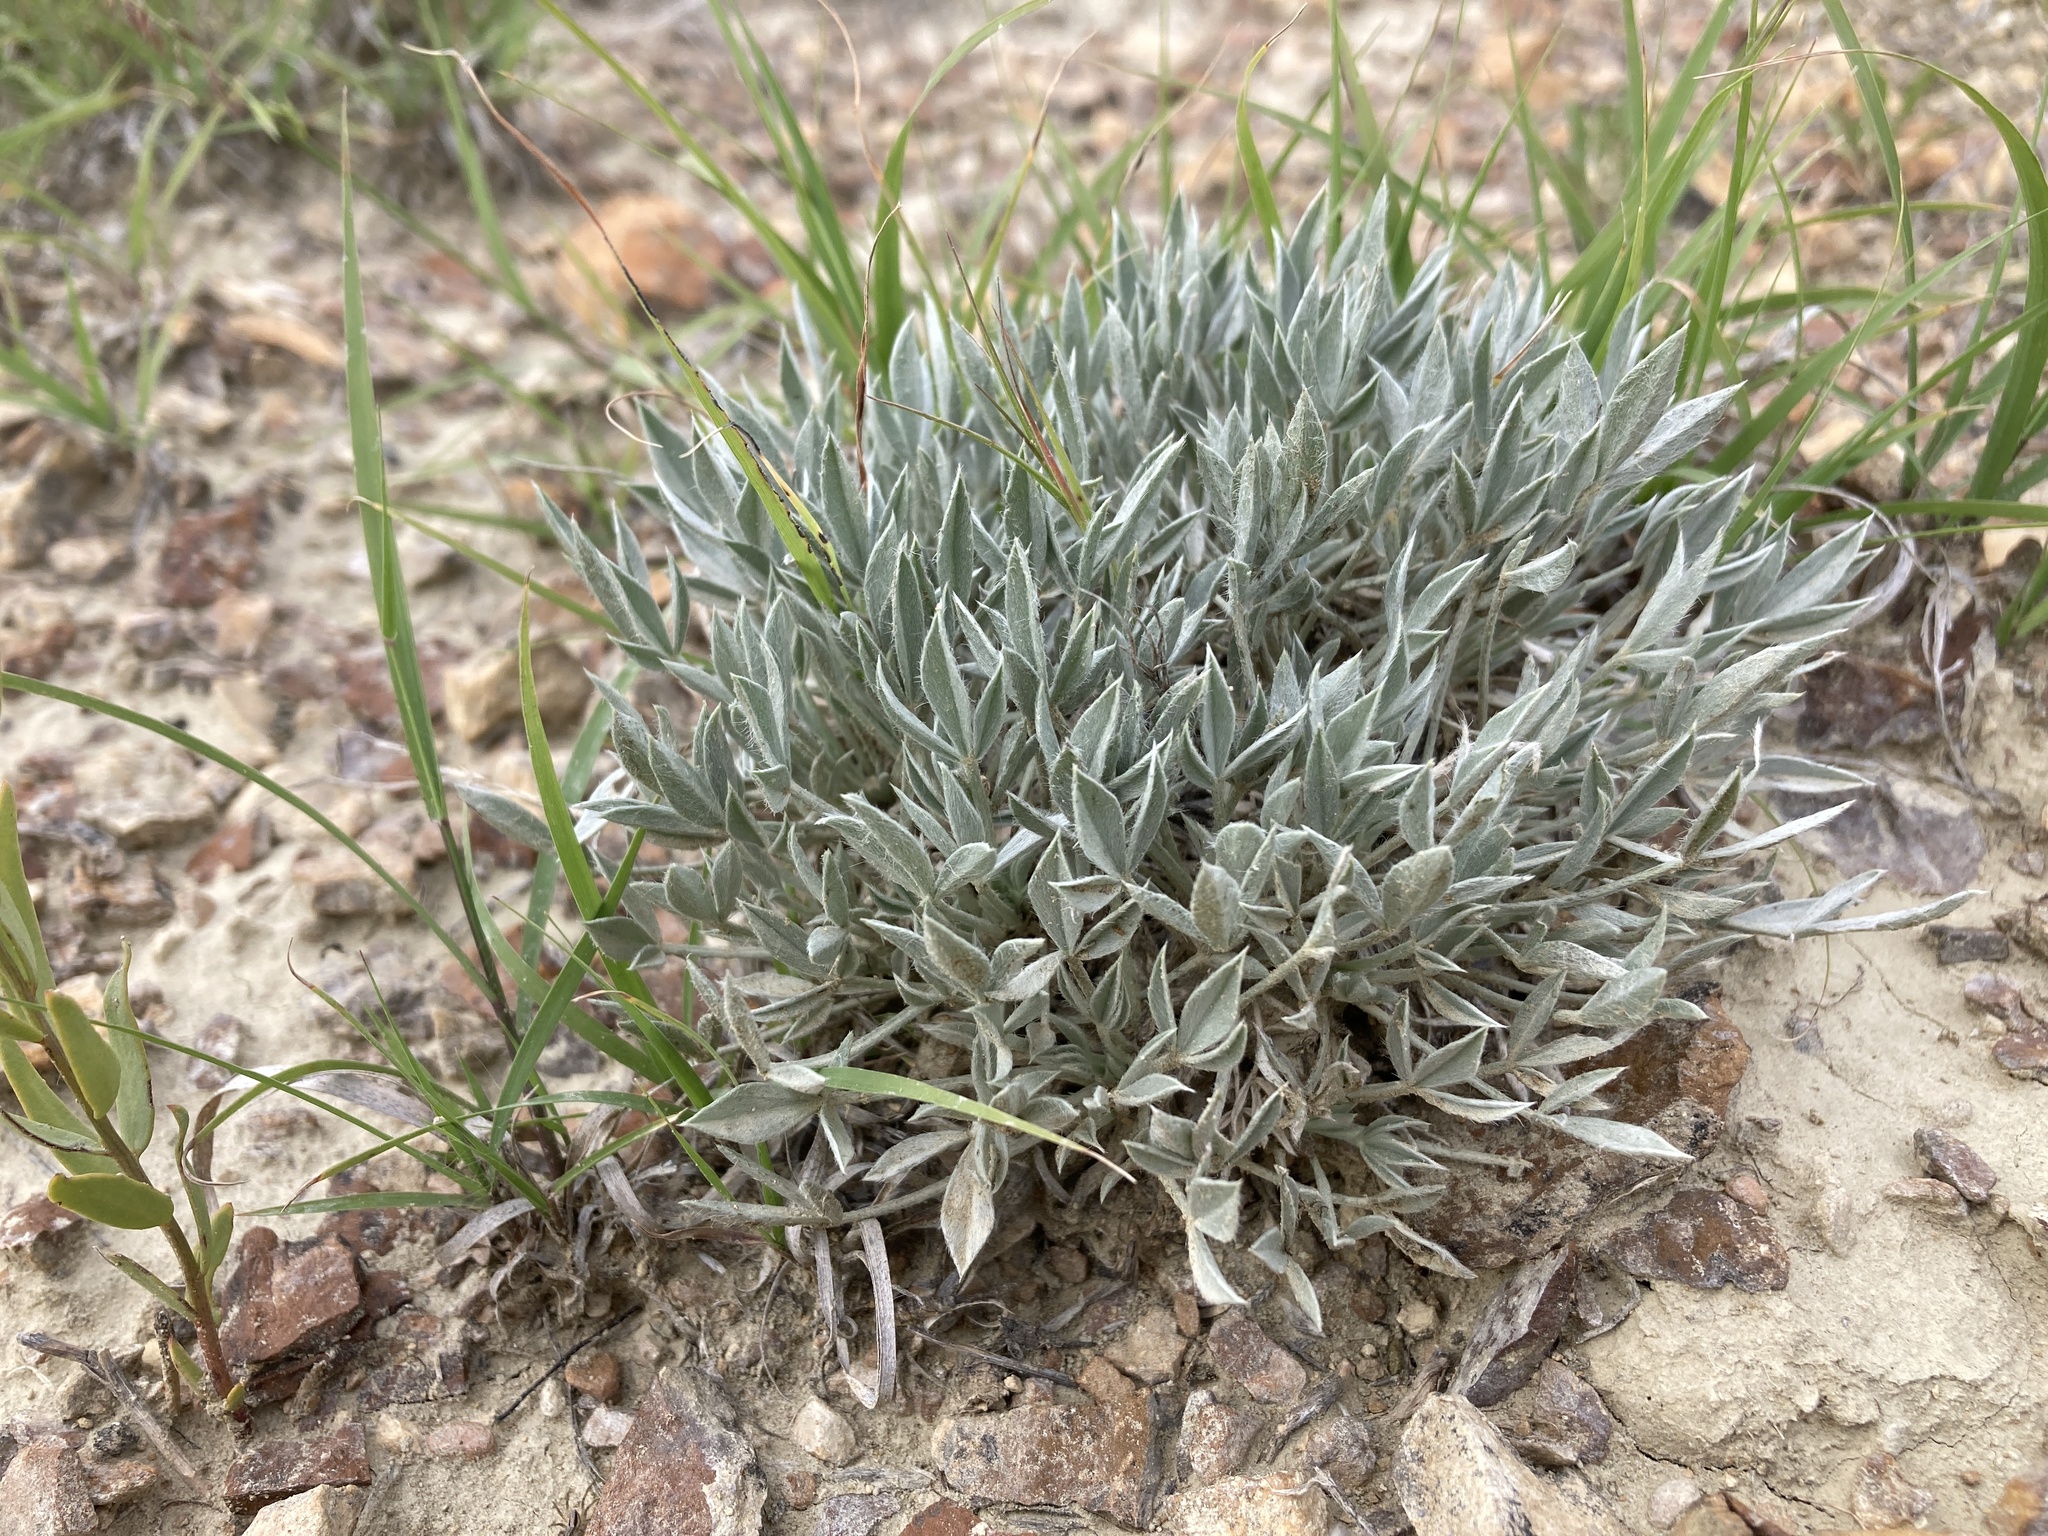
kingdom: Plantae
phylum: Tracheophyta
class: Magnoliopsida
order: Fabales
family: Fabaceae
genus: Astragalus
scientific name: Astragalus gilviflorus
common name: Cushion milk-vetch
